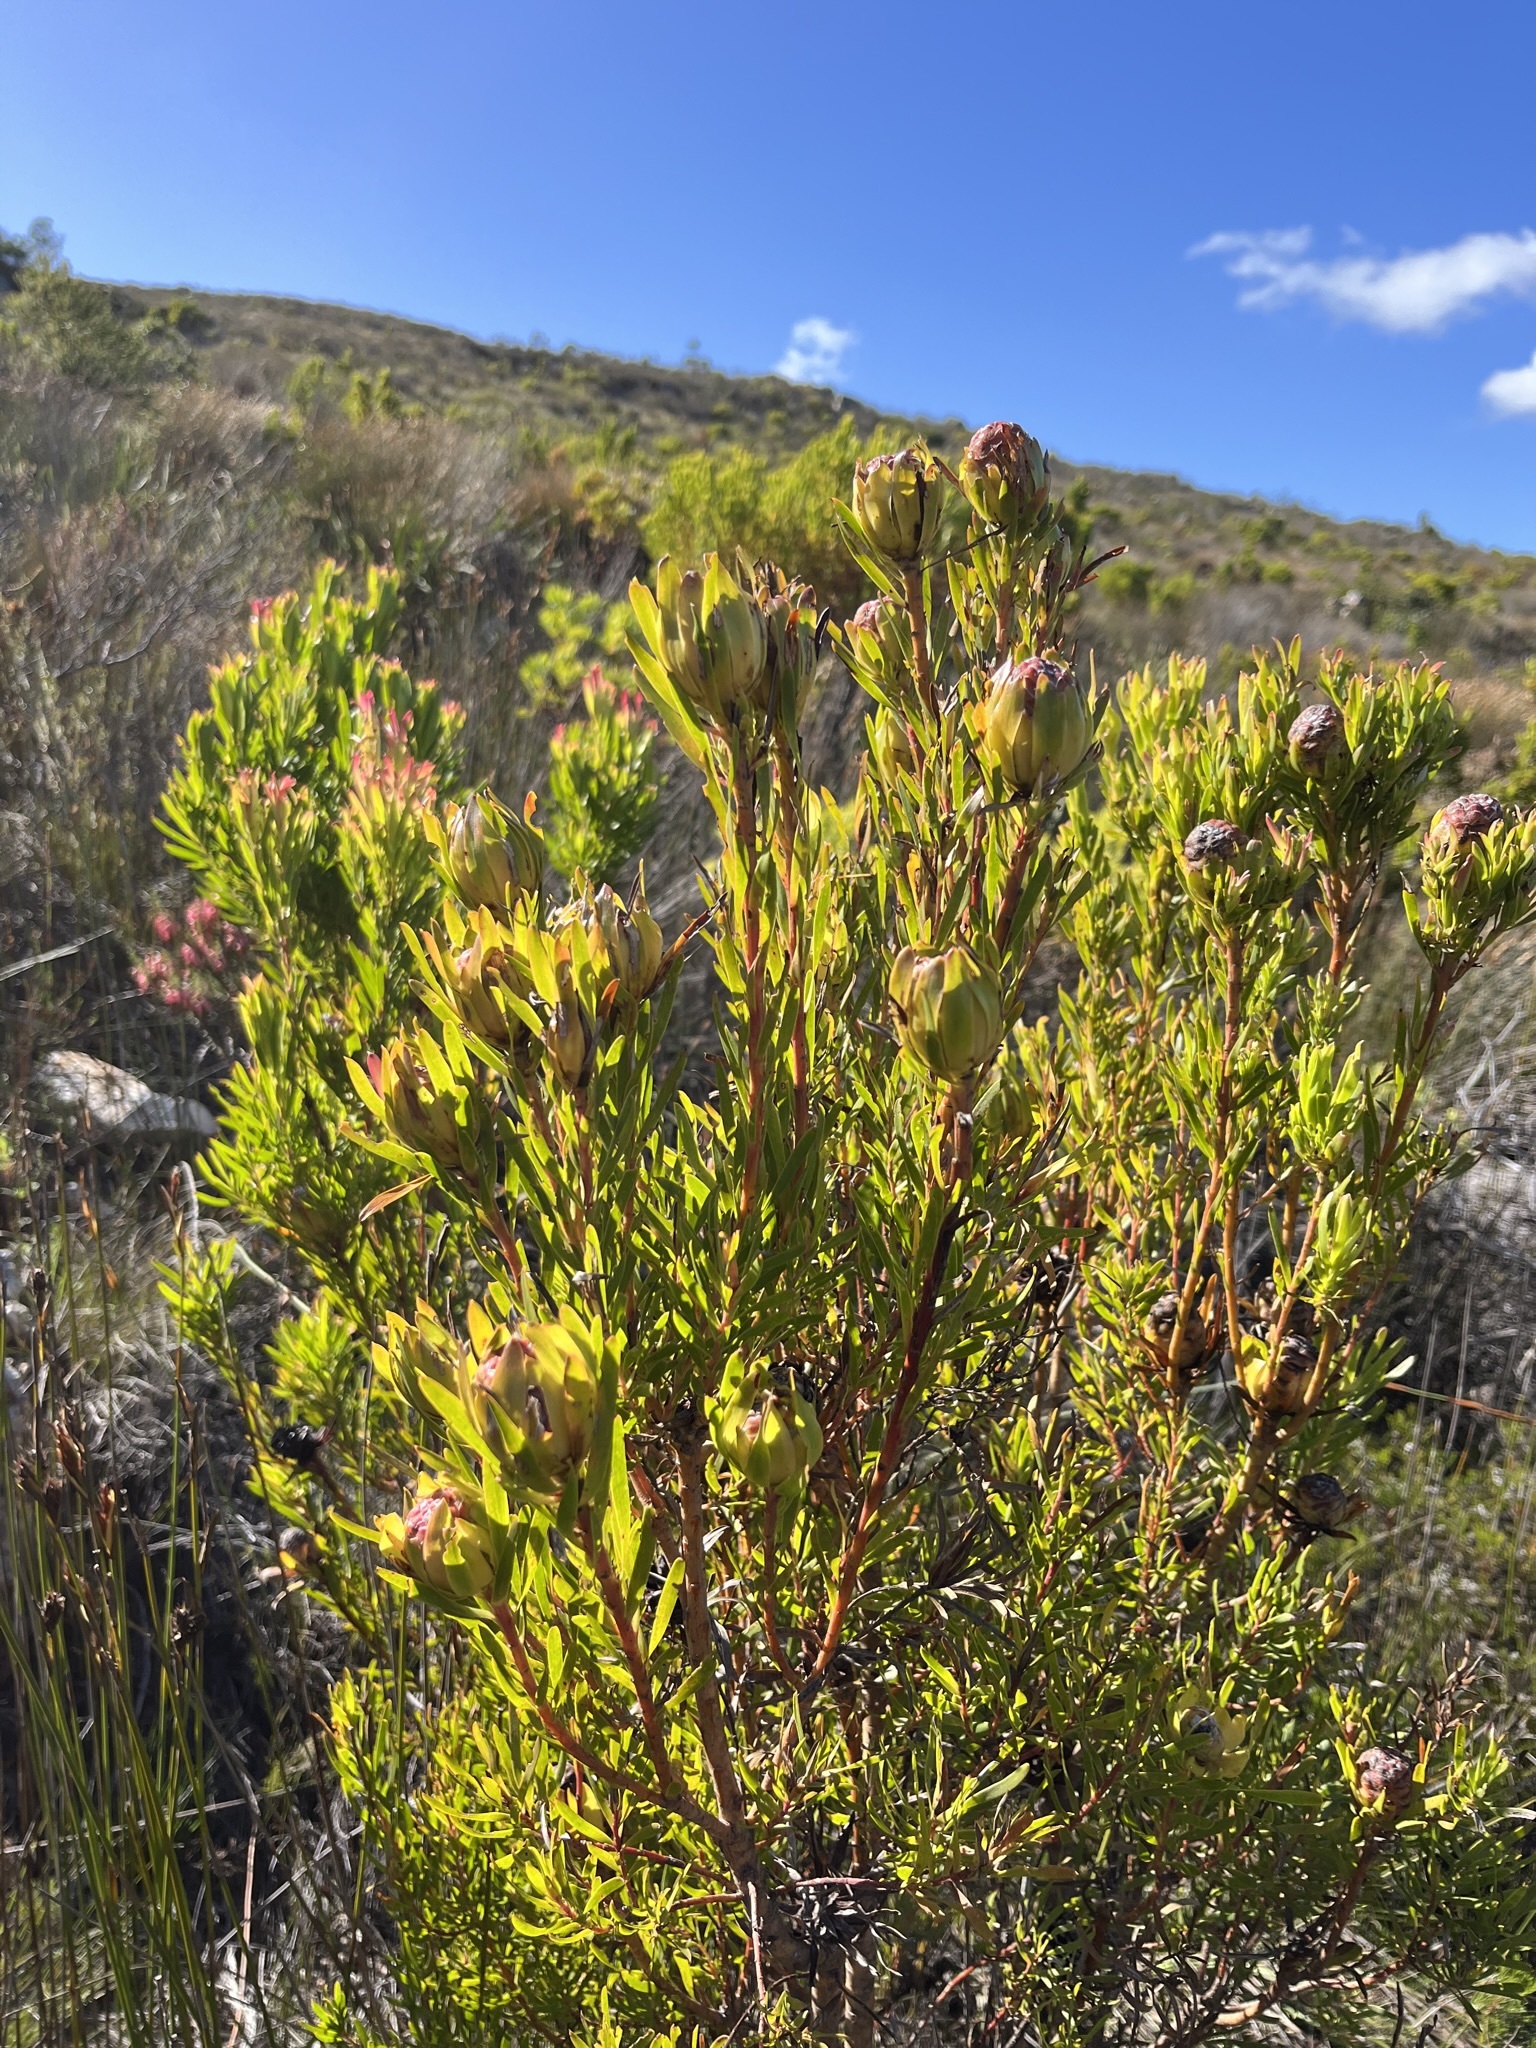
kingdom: Plantae
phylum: Tracheophyta
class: Magnoliopsida
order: Proteales
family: Proteaceae
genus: Leucadendron
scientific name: Leucadendron xanthoconus
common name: Sickle-leaf conebush
